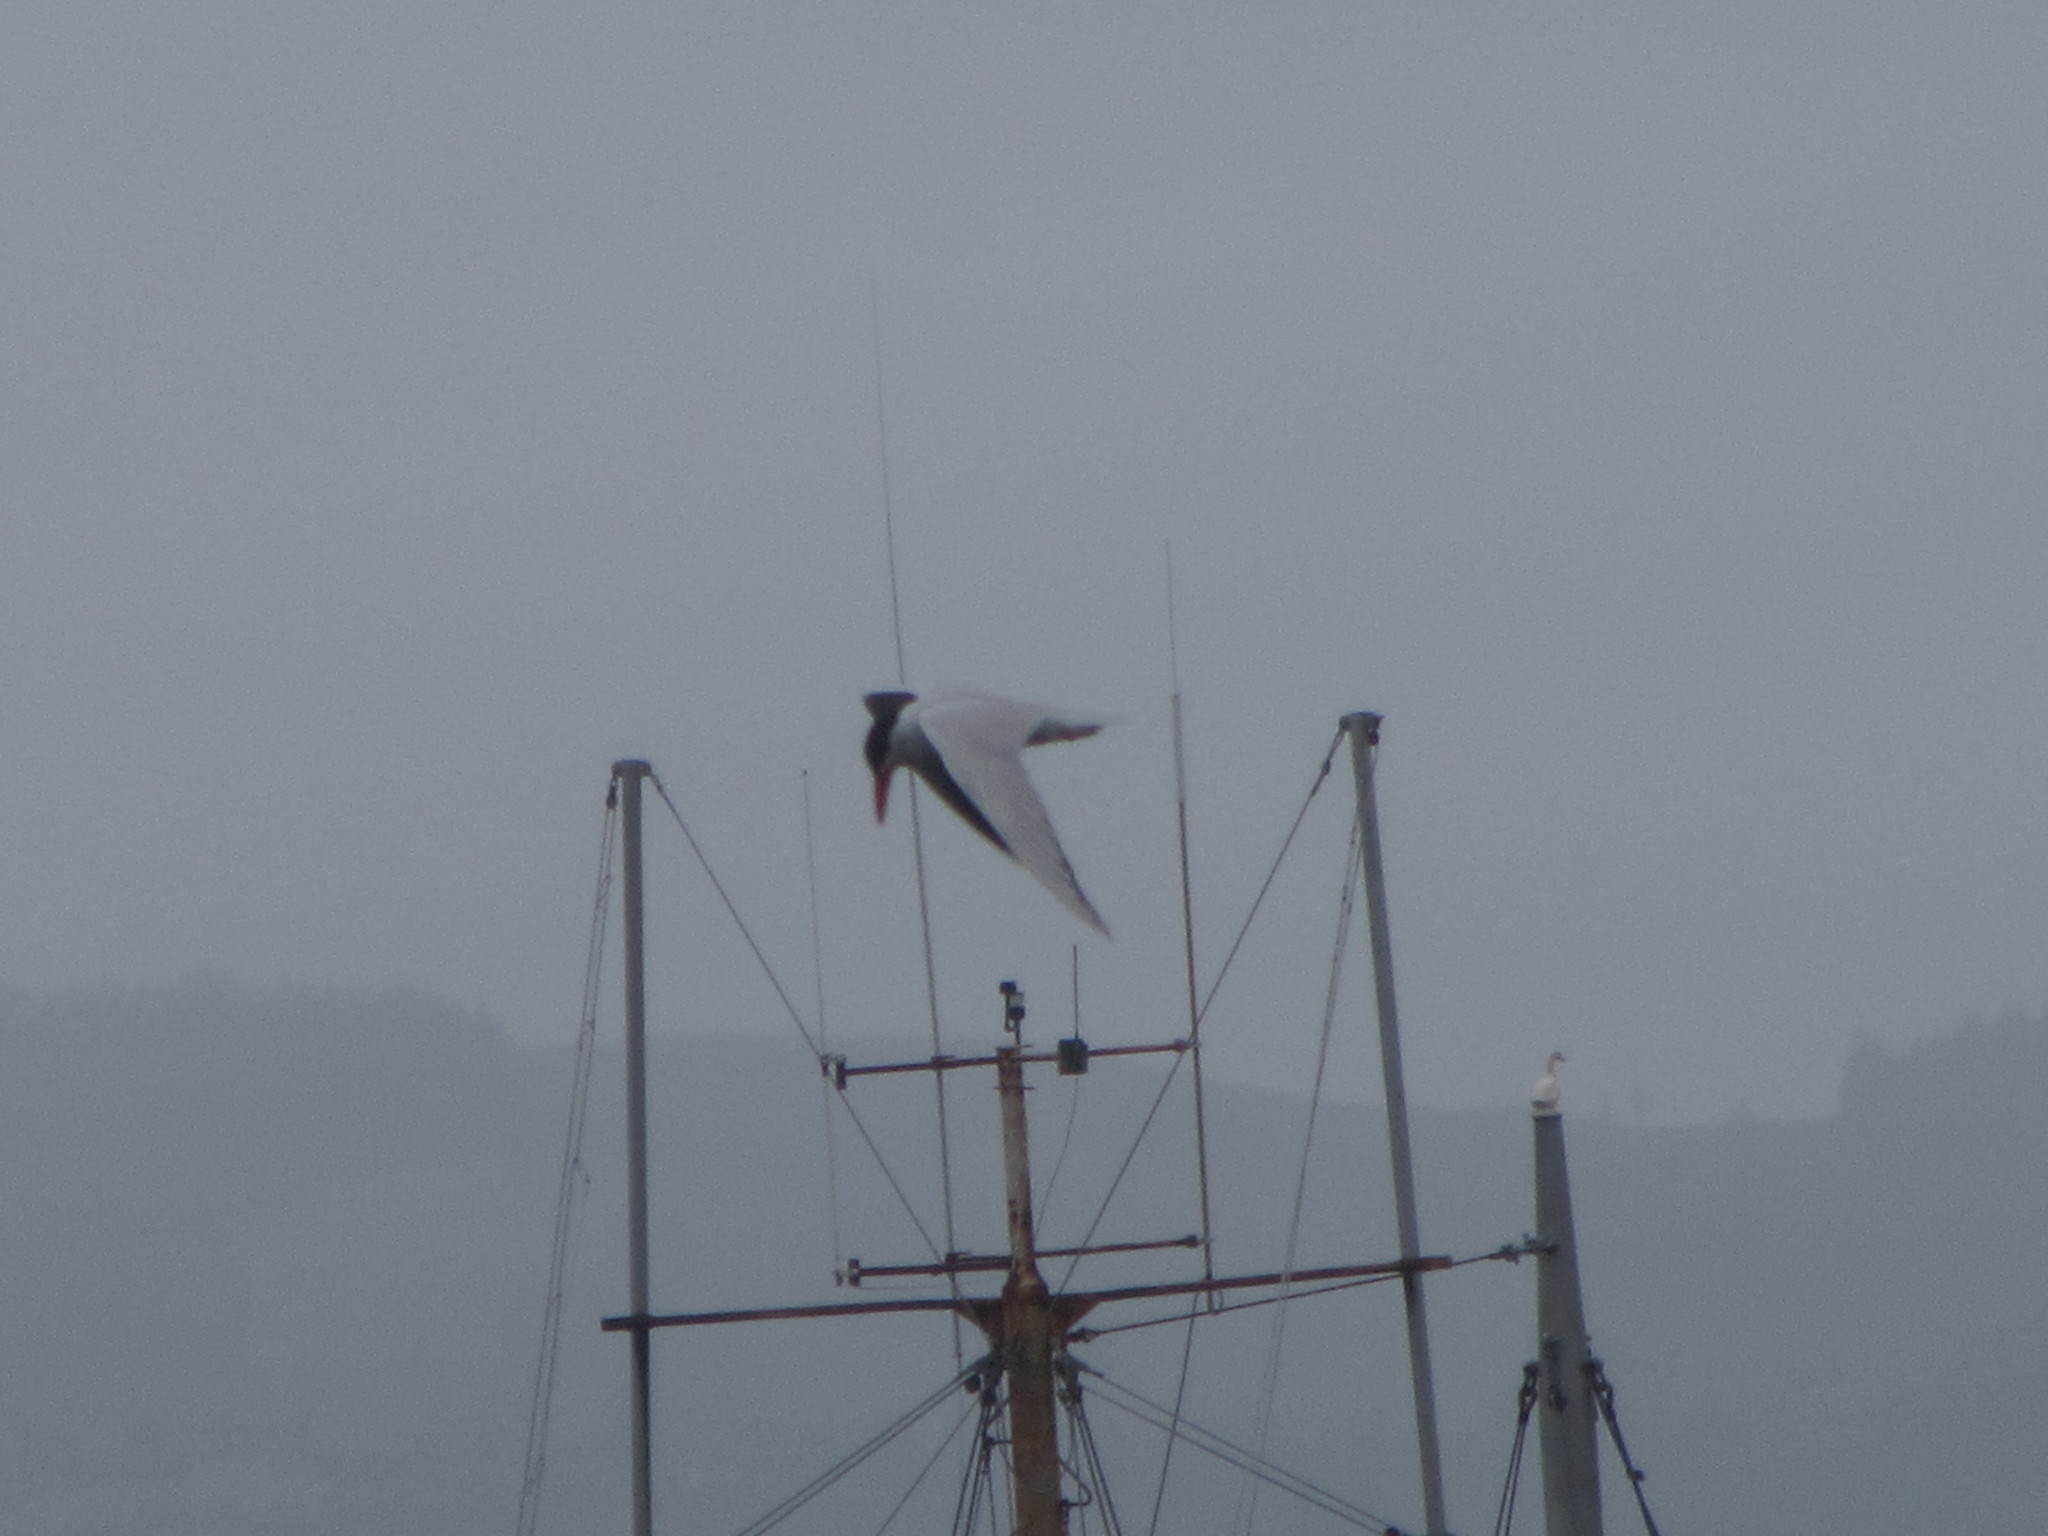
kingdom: Animalia
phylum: Chordata
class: Aves
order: Charadriiformes
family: Laridae
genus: Hydroprogne
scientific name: Hydroprogne caspia
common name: Caspian tern
